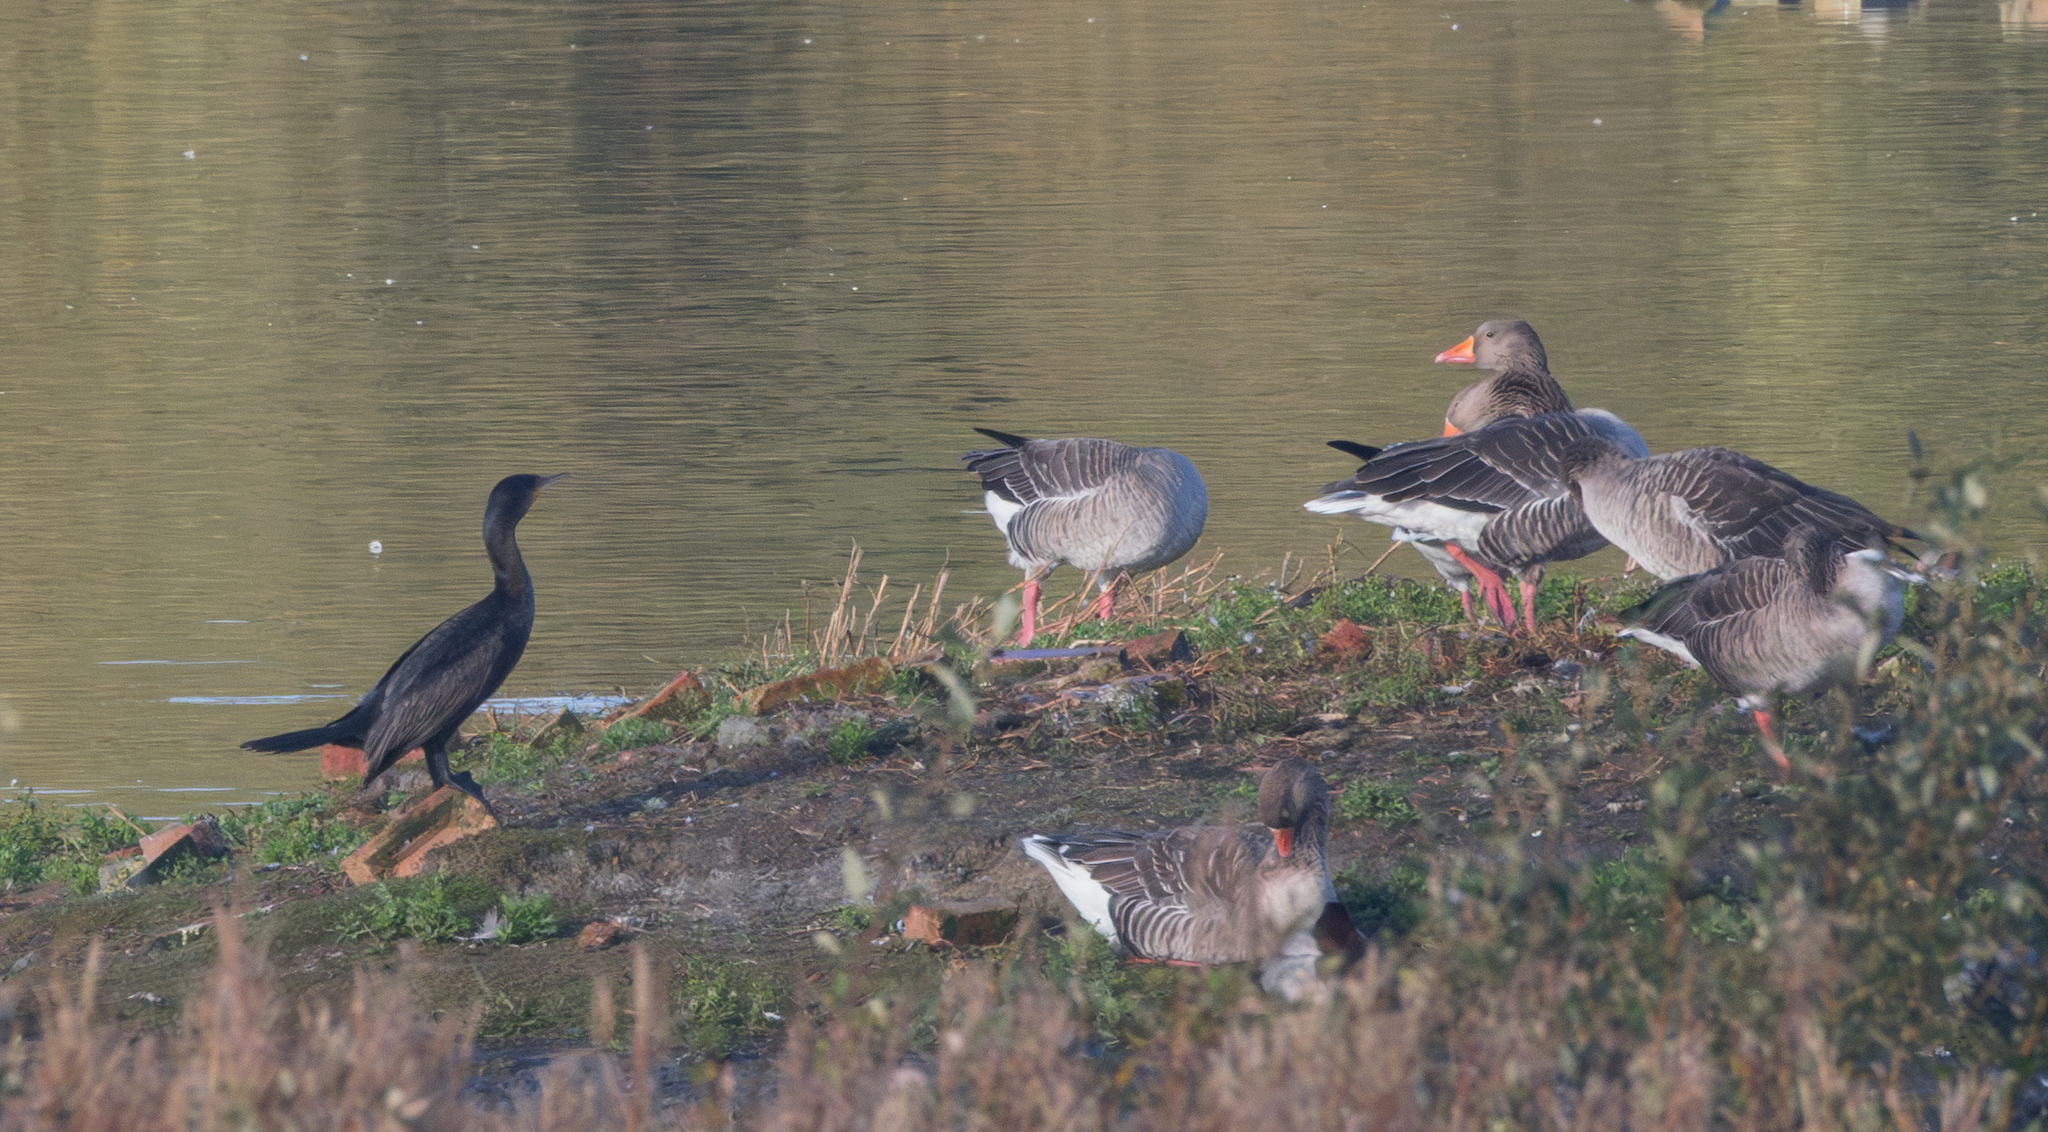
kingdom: Animalia
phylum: Chordata
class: Aves
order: Anseriformes
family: Anatidae
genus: Anser
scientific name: Anser anser
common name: Greylag goose
